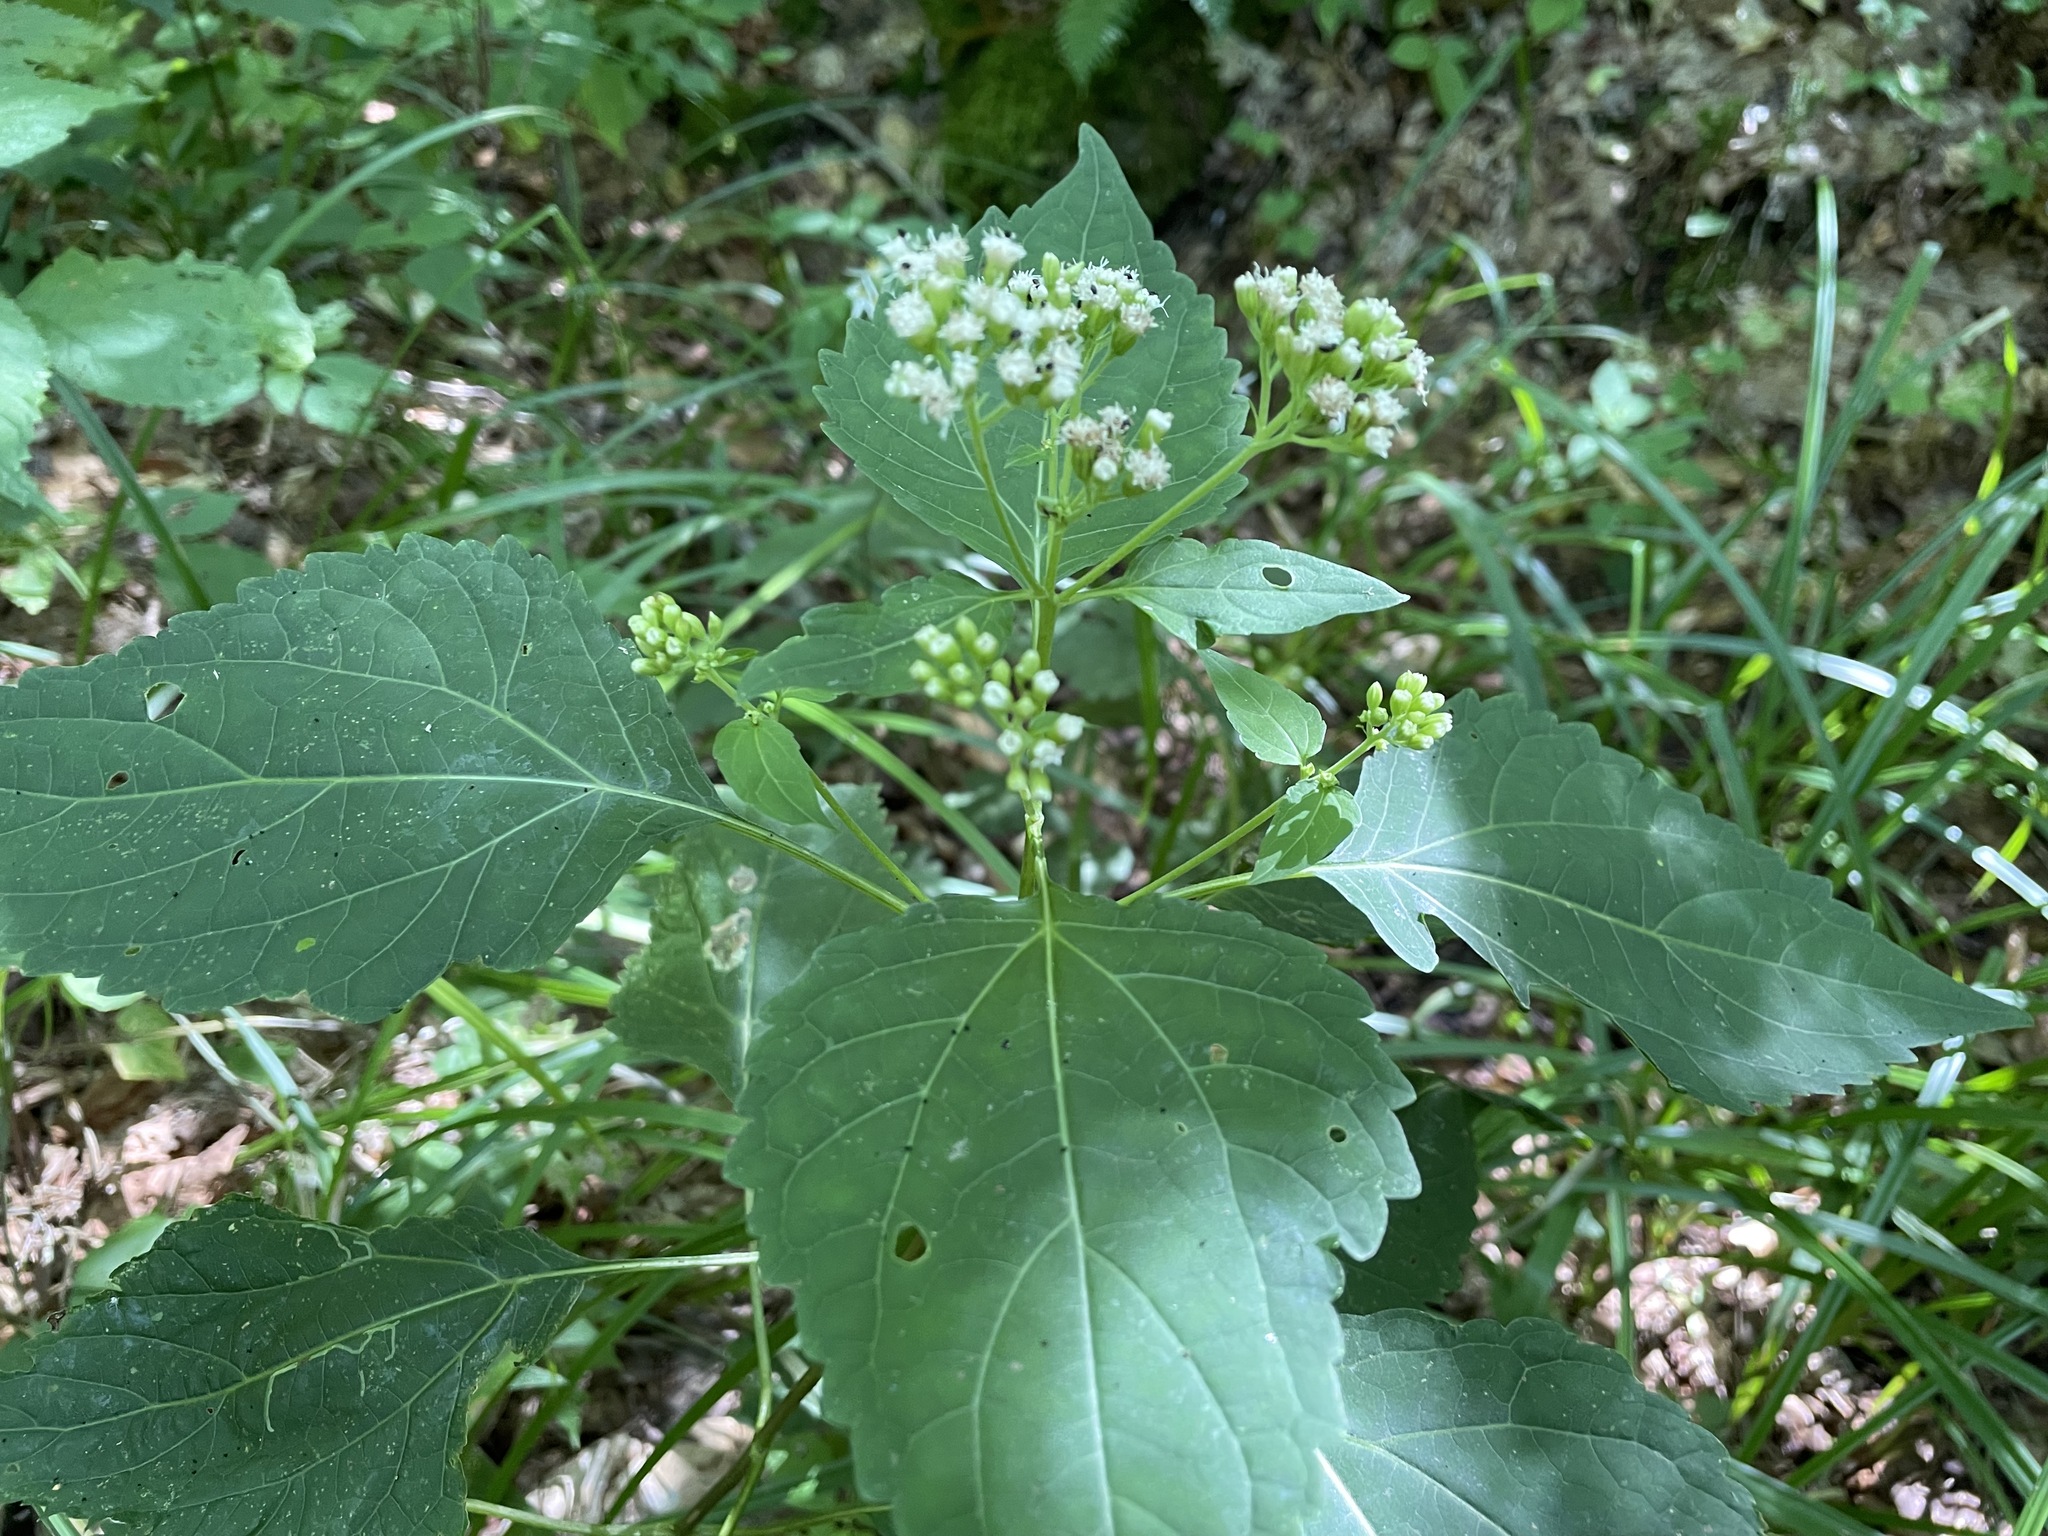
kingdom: Plantae
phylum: Tracheophyta
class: Magnoliopsida
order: Asterales
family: Asteraceae
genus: Ageratina
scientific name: Ageratina altissima
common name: White snakeroot
